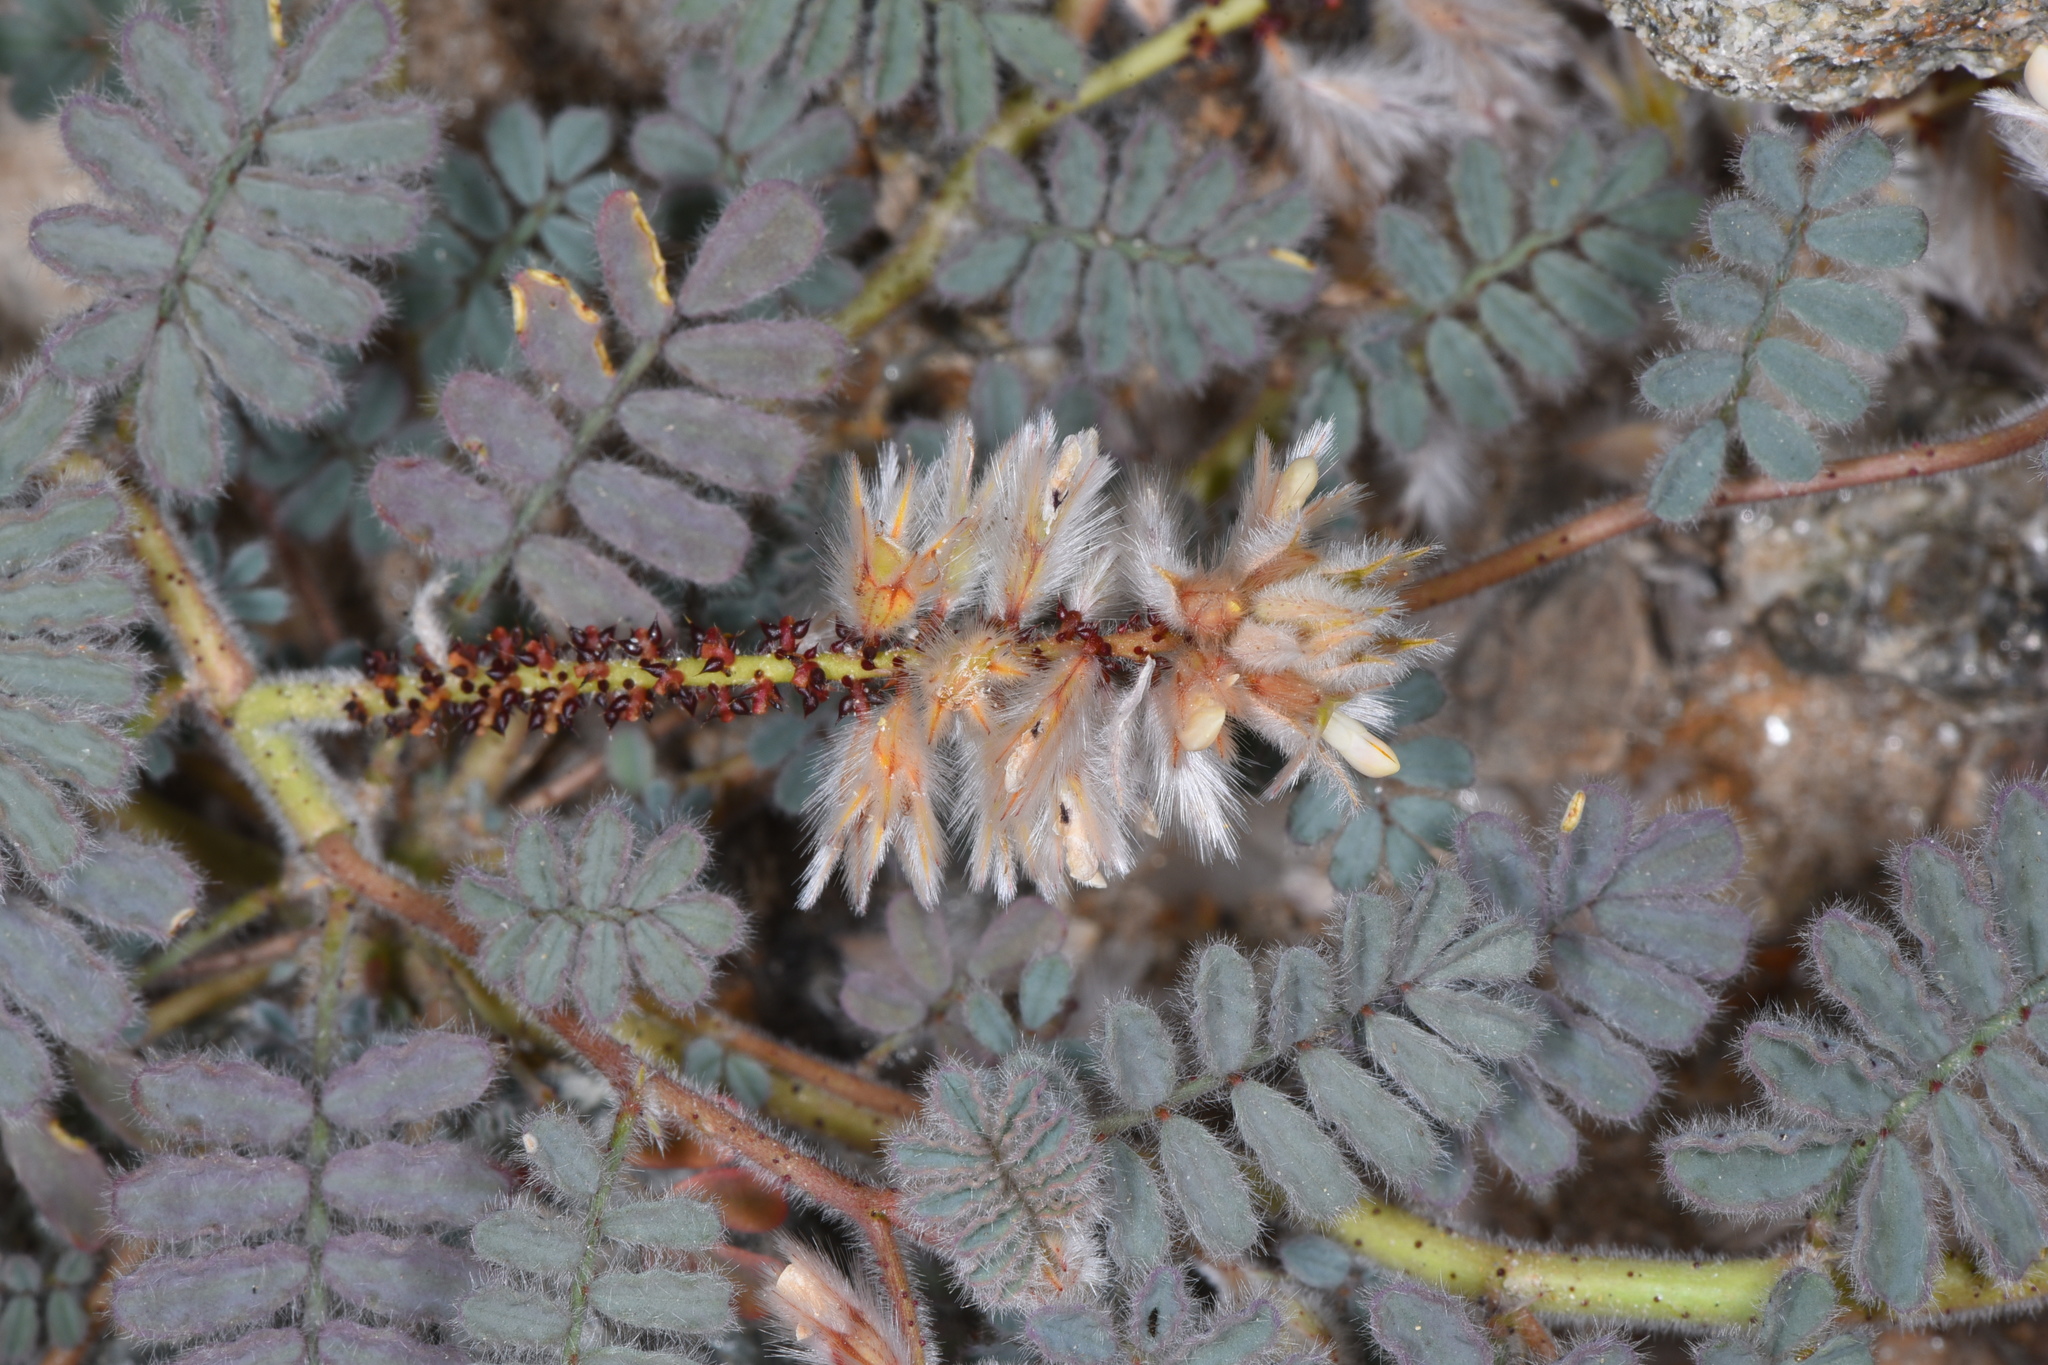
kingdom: Plantae
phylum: Tracheophyta
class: Magnoliopsida
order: Fabales
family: Fabaceae
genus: Dalea
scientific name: Dalea mollissima
